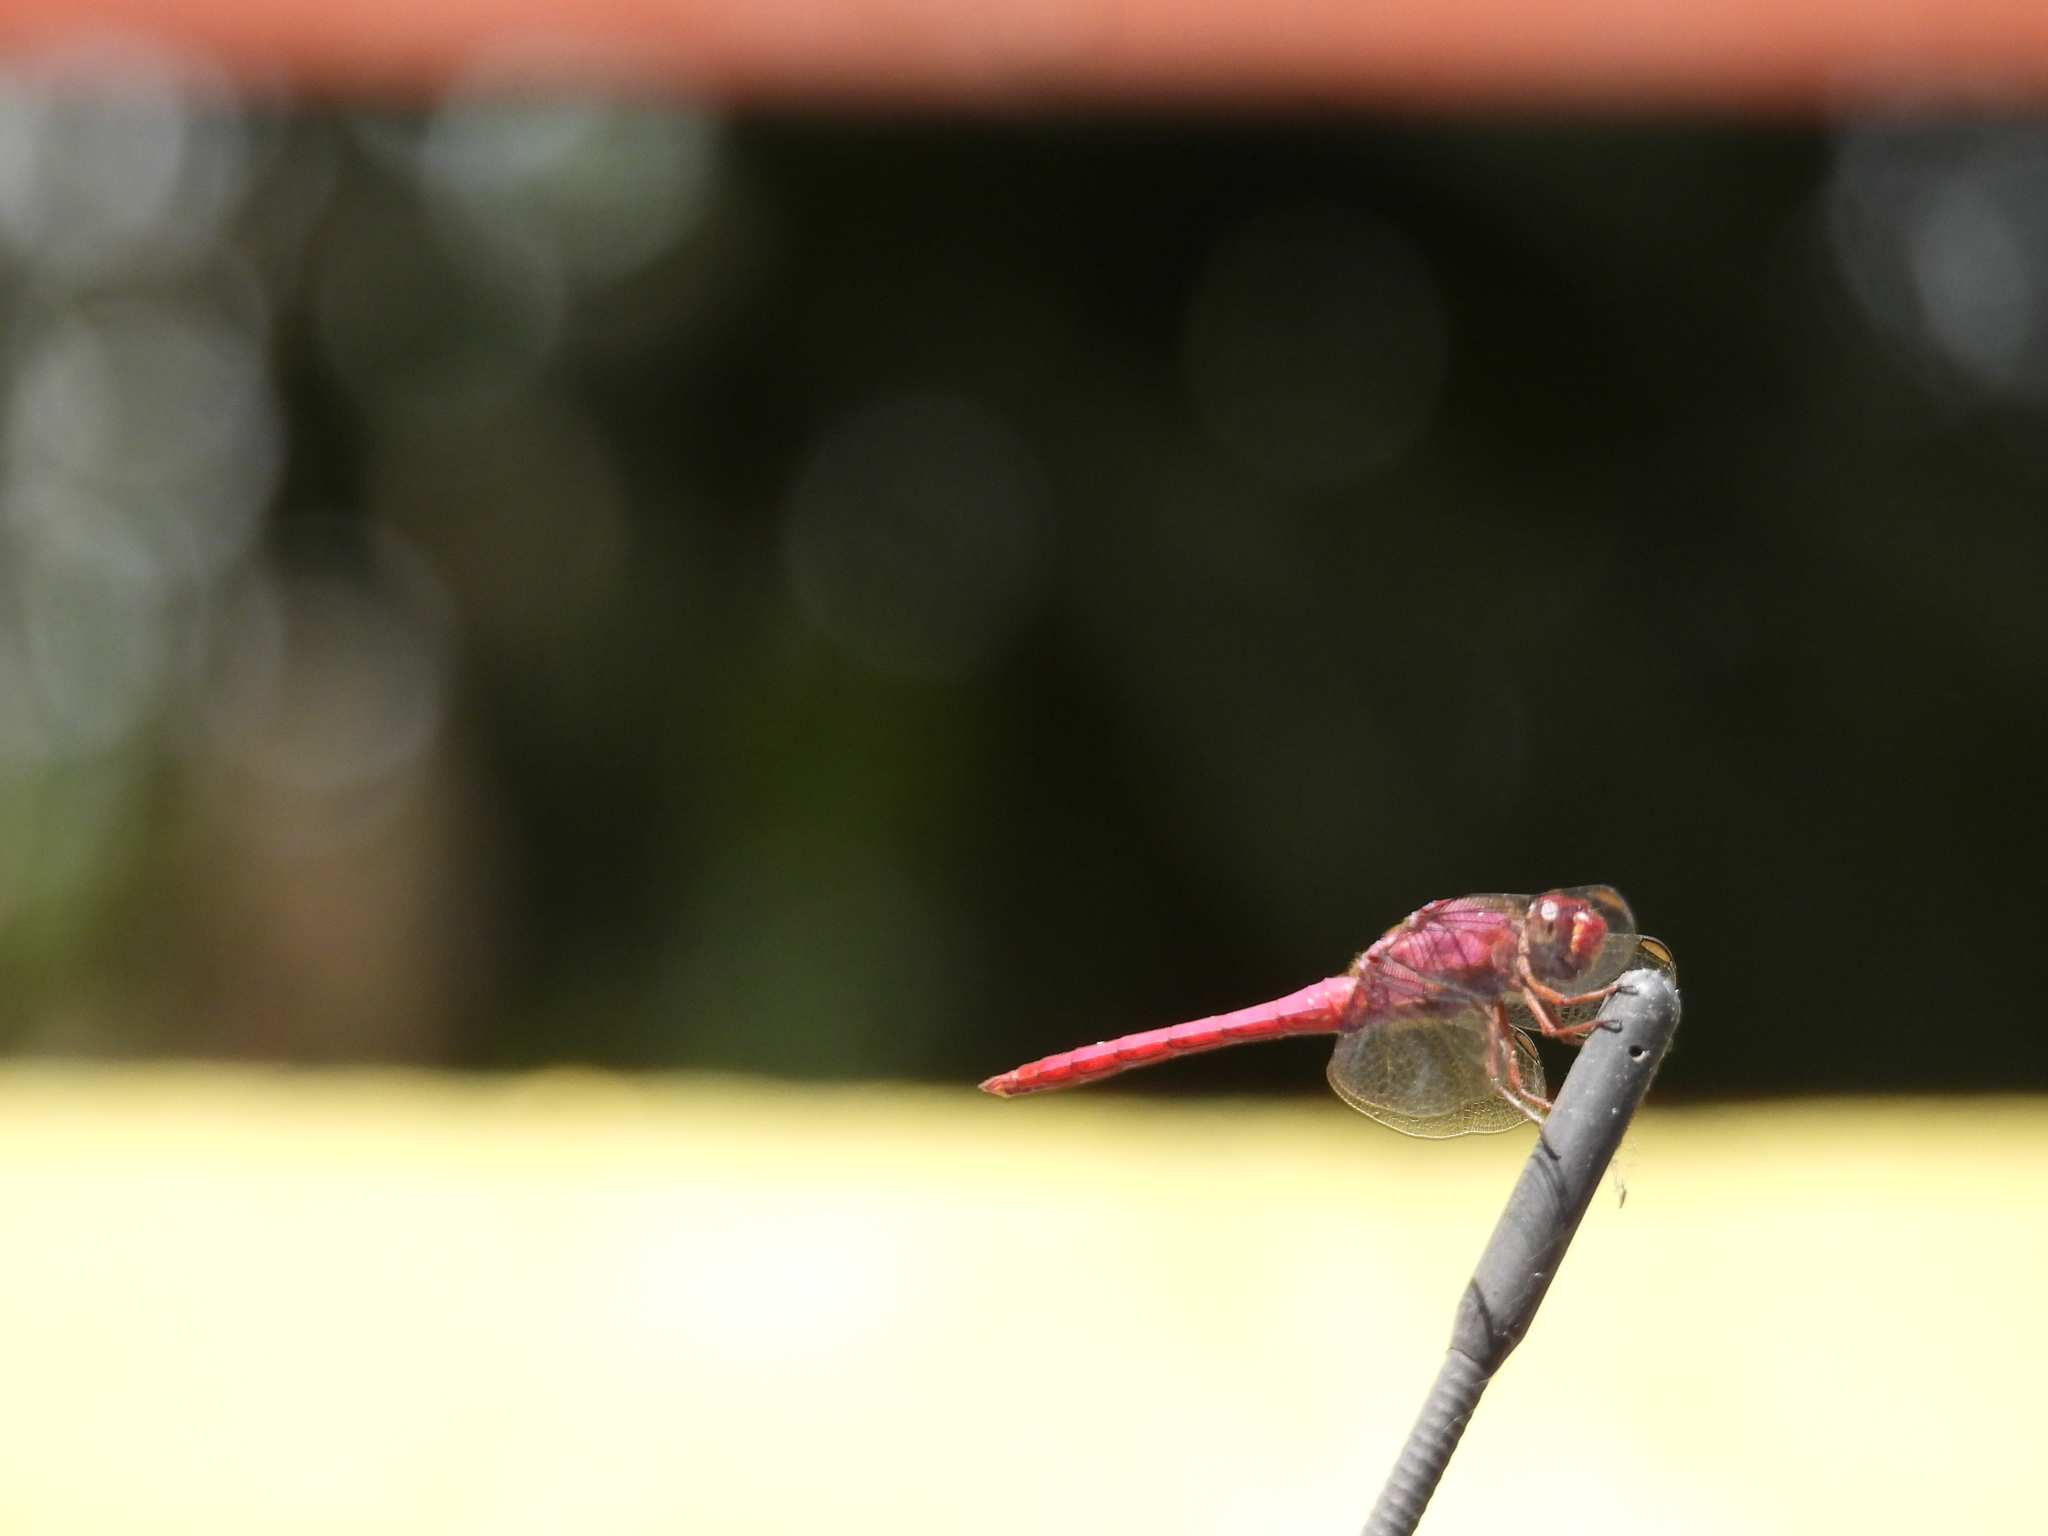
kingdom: Animalia
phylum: Arthropoda
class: Insecta
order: Odonata
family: Libellulidae
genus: Orthemis
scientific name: Orthemis discolor
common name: Carmine skimmer
